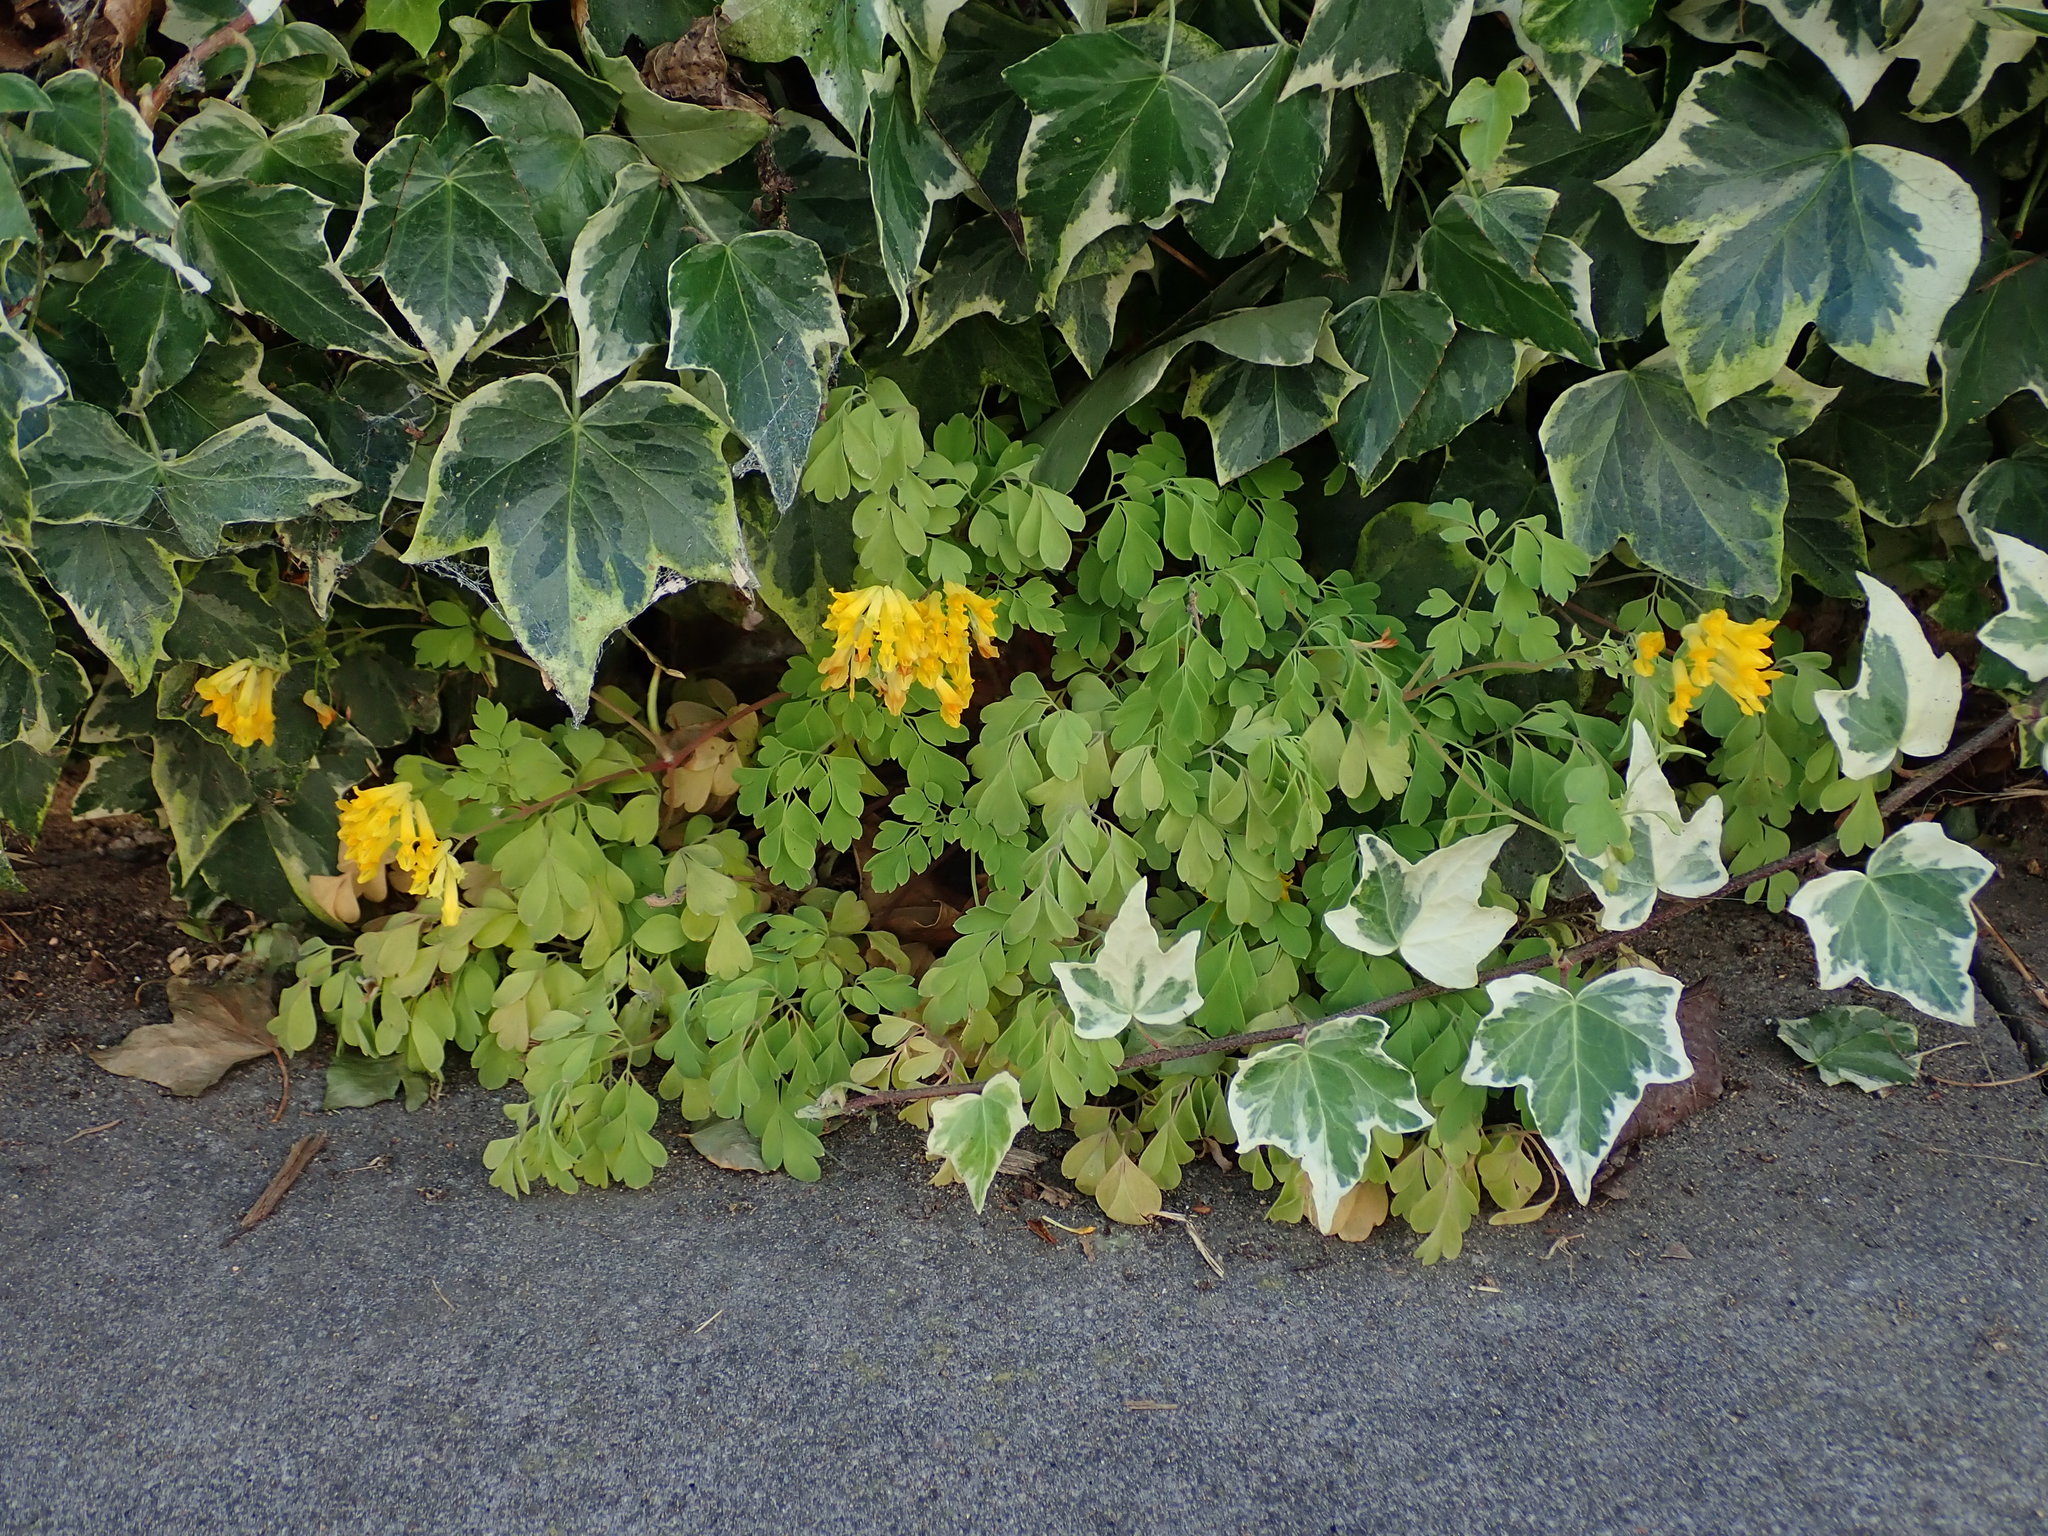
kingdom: Plantae
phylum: Tracheophyta
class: Magnoliopsida
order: Ranunculales
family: Papaveraceae
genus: Pseudofumaria
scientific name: Pseudofumaria lutea
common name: Yellow corydalis
